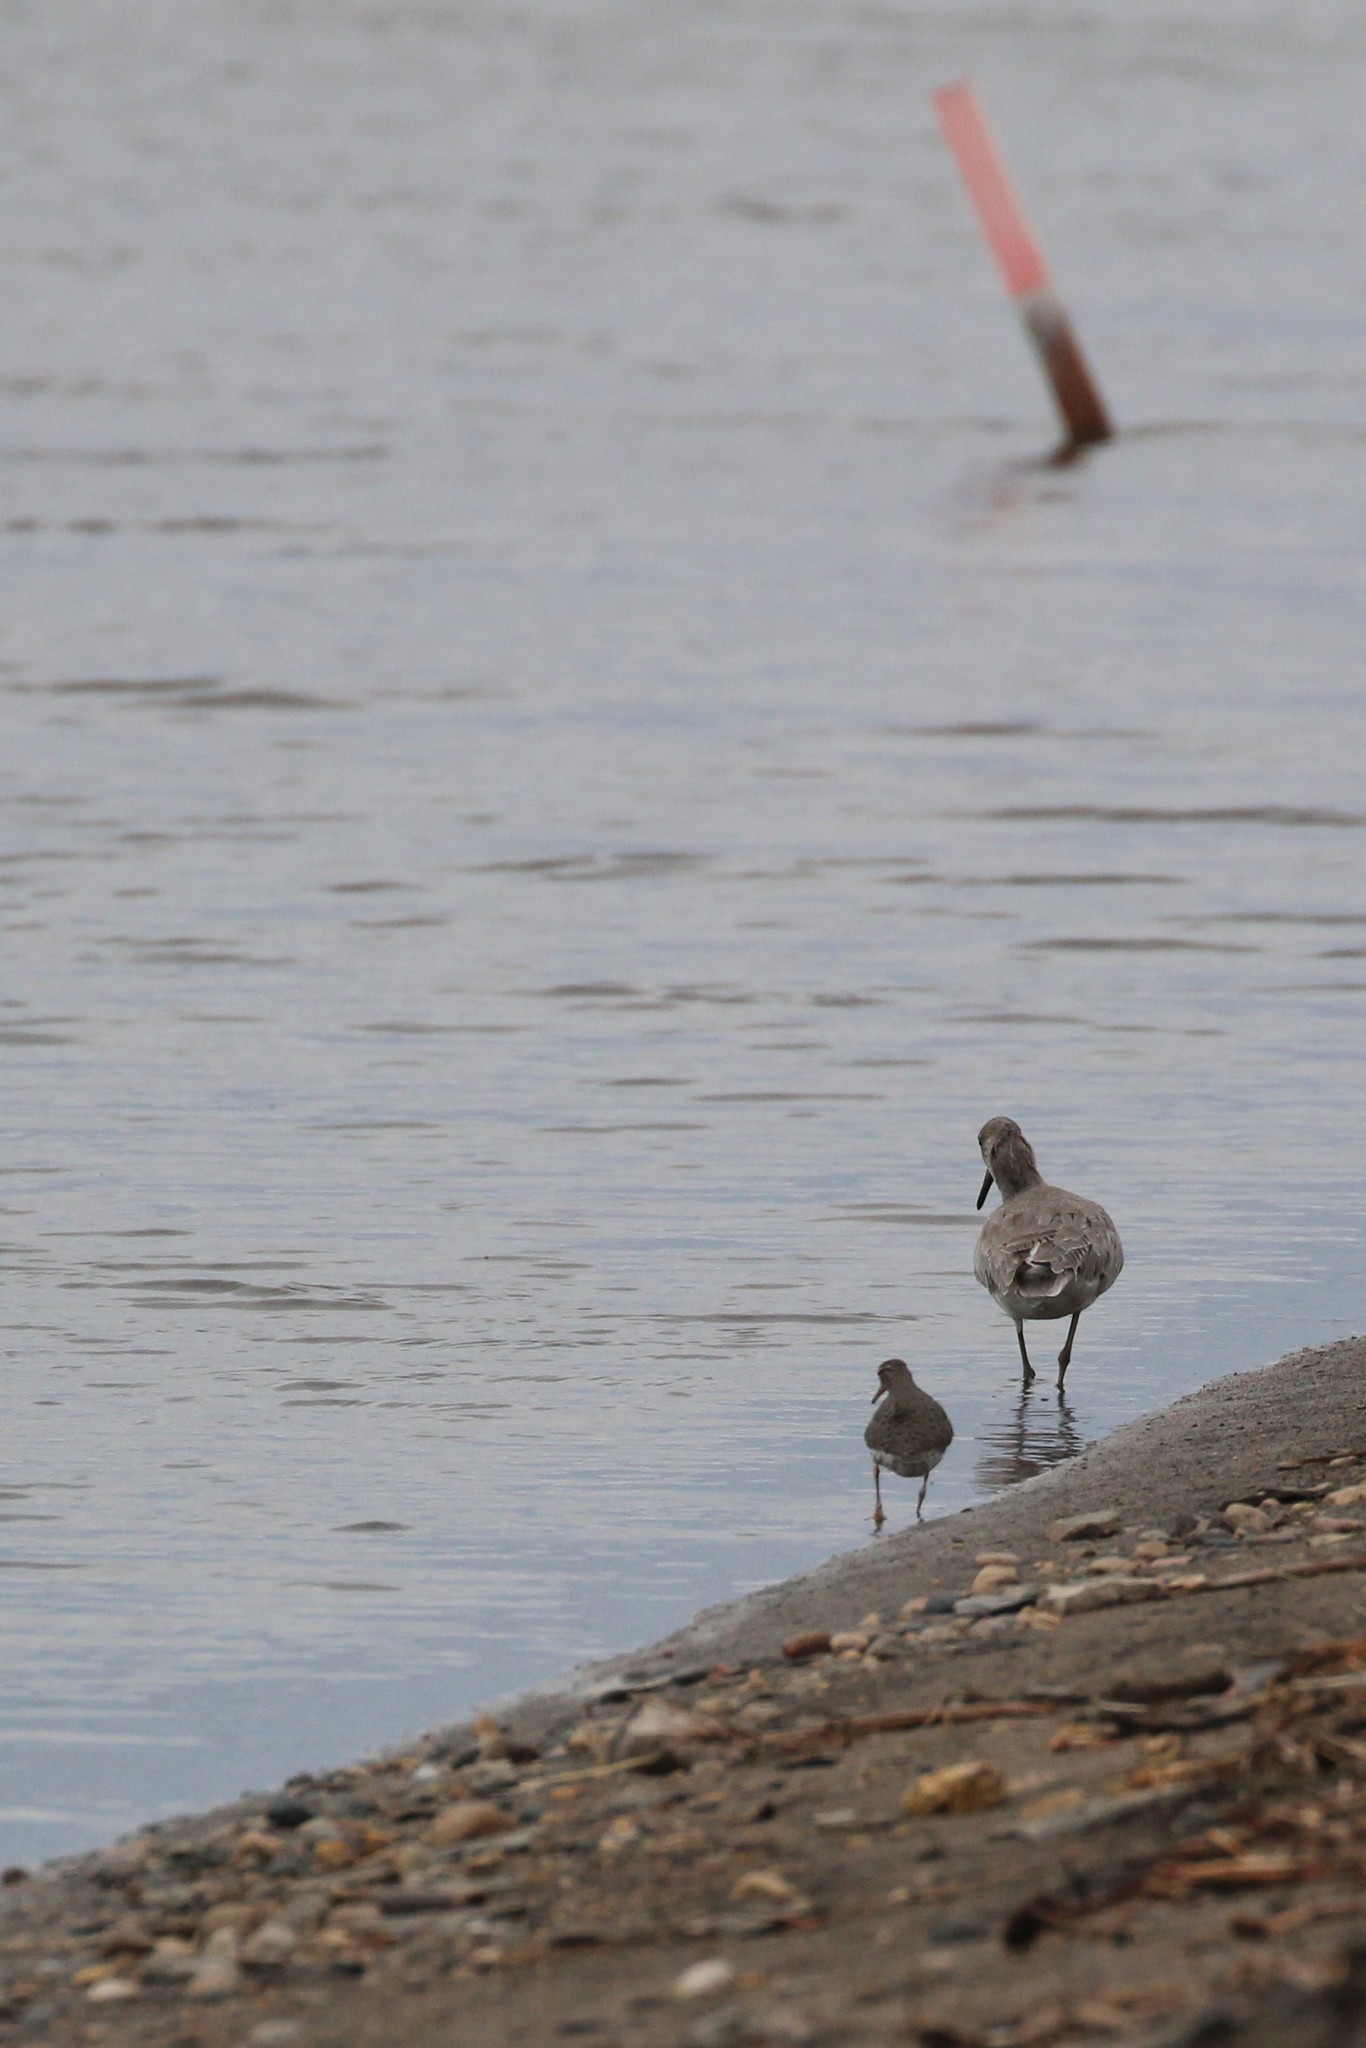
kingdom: Animalia
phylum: Chordata
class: Aves
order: Charadriiformes
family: Scolopacidae
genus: Tringa
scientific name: Tringa semipalmata
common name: Willet
